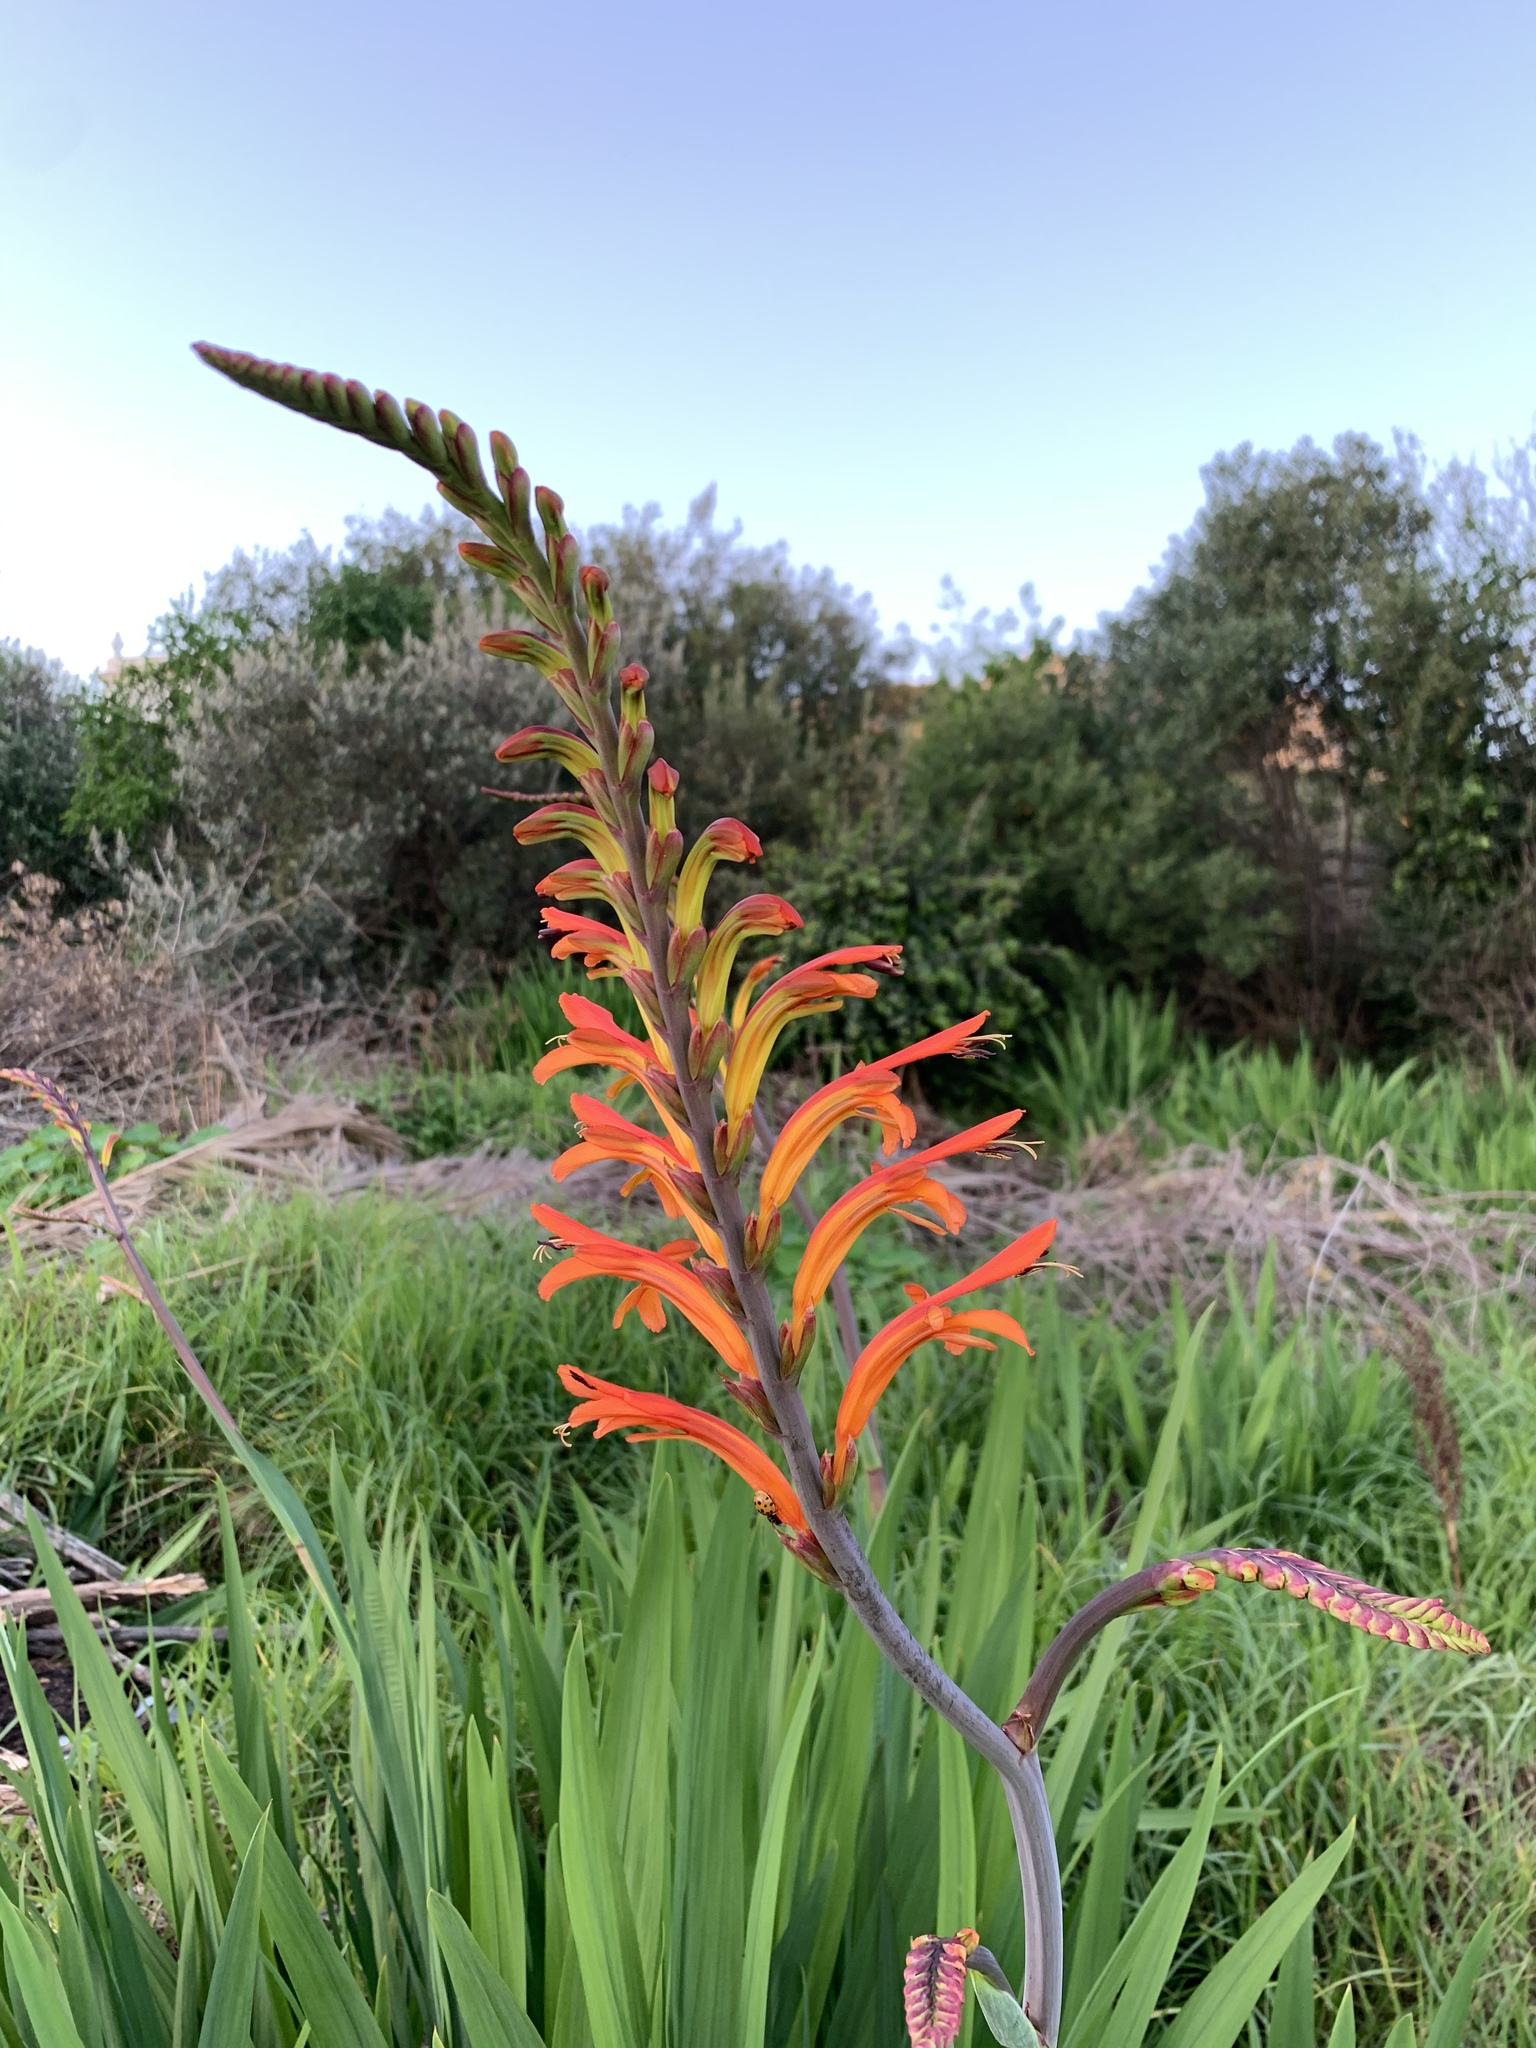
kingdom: Plantae
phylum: Tracheophyta
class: Liliopsida
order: Asparagales
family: Iridaceae
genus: Chasmanthe
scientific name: Chasmanthe floribunda
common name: African cornflag
